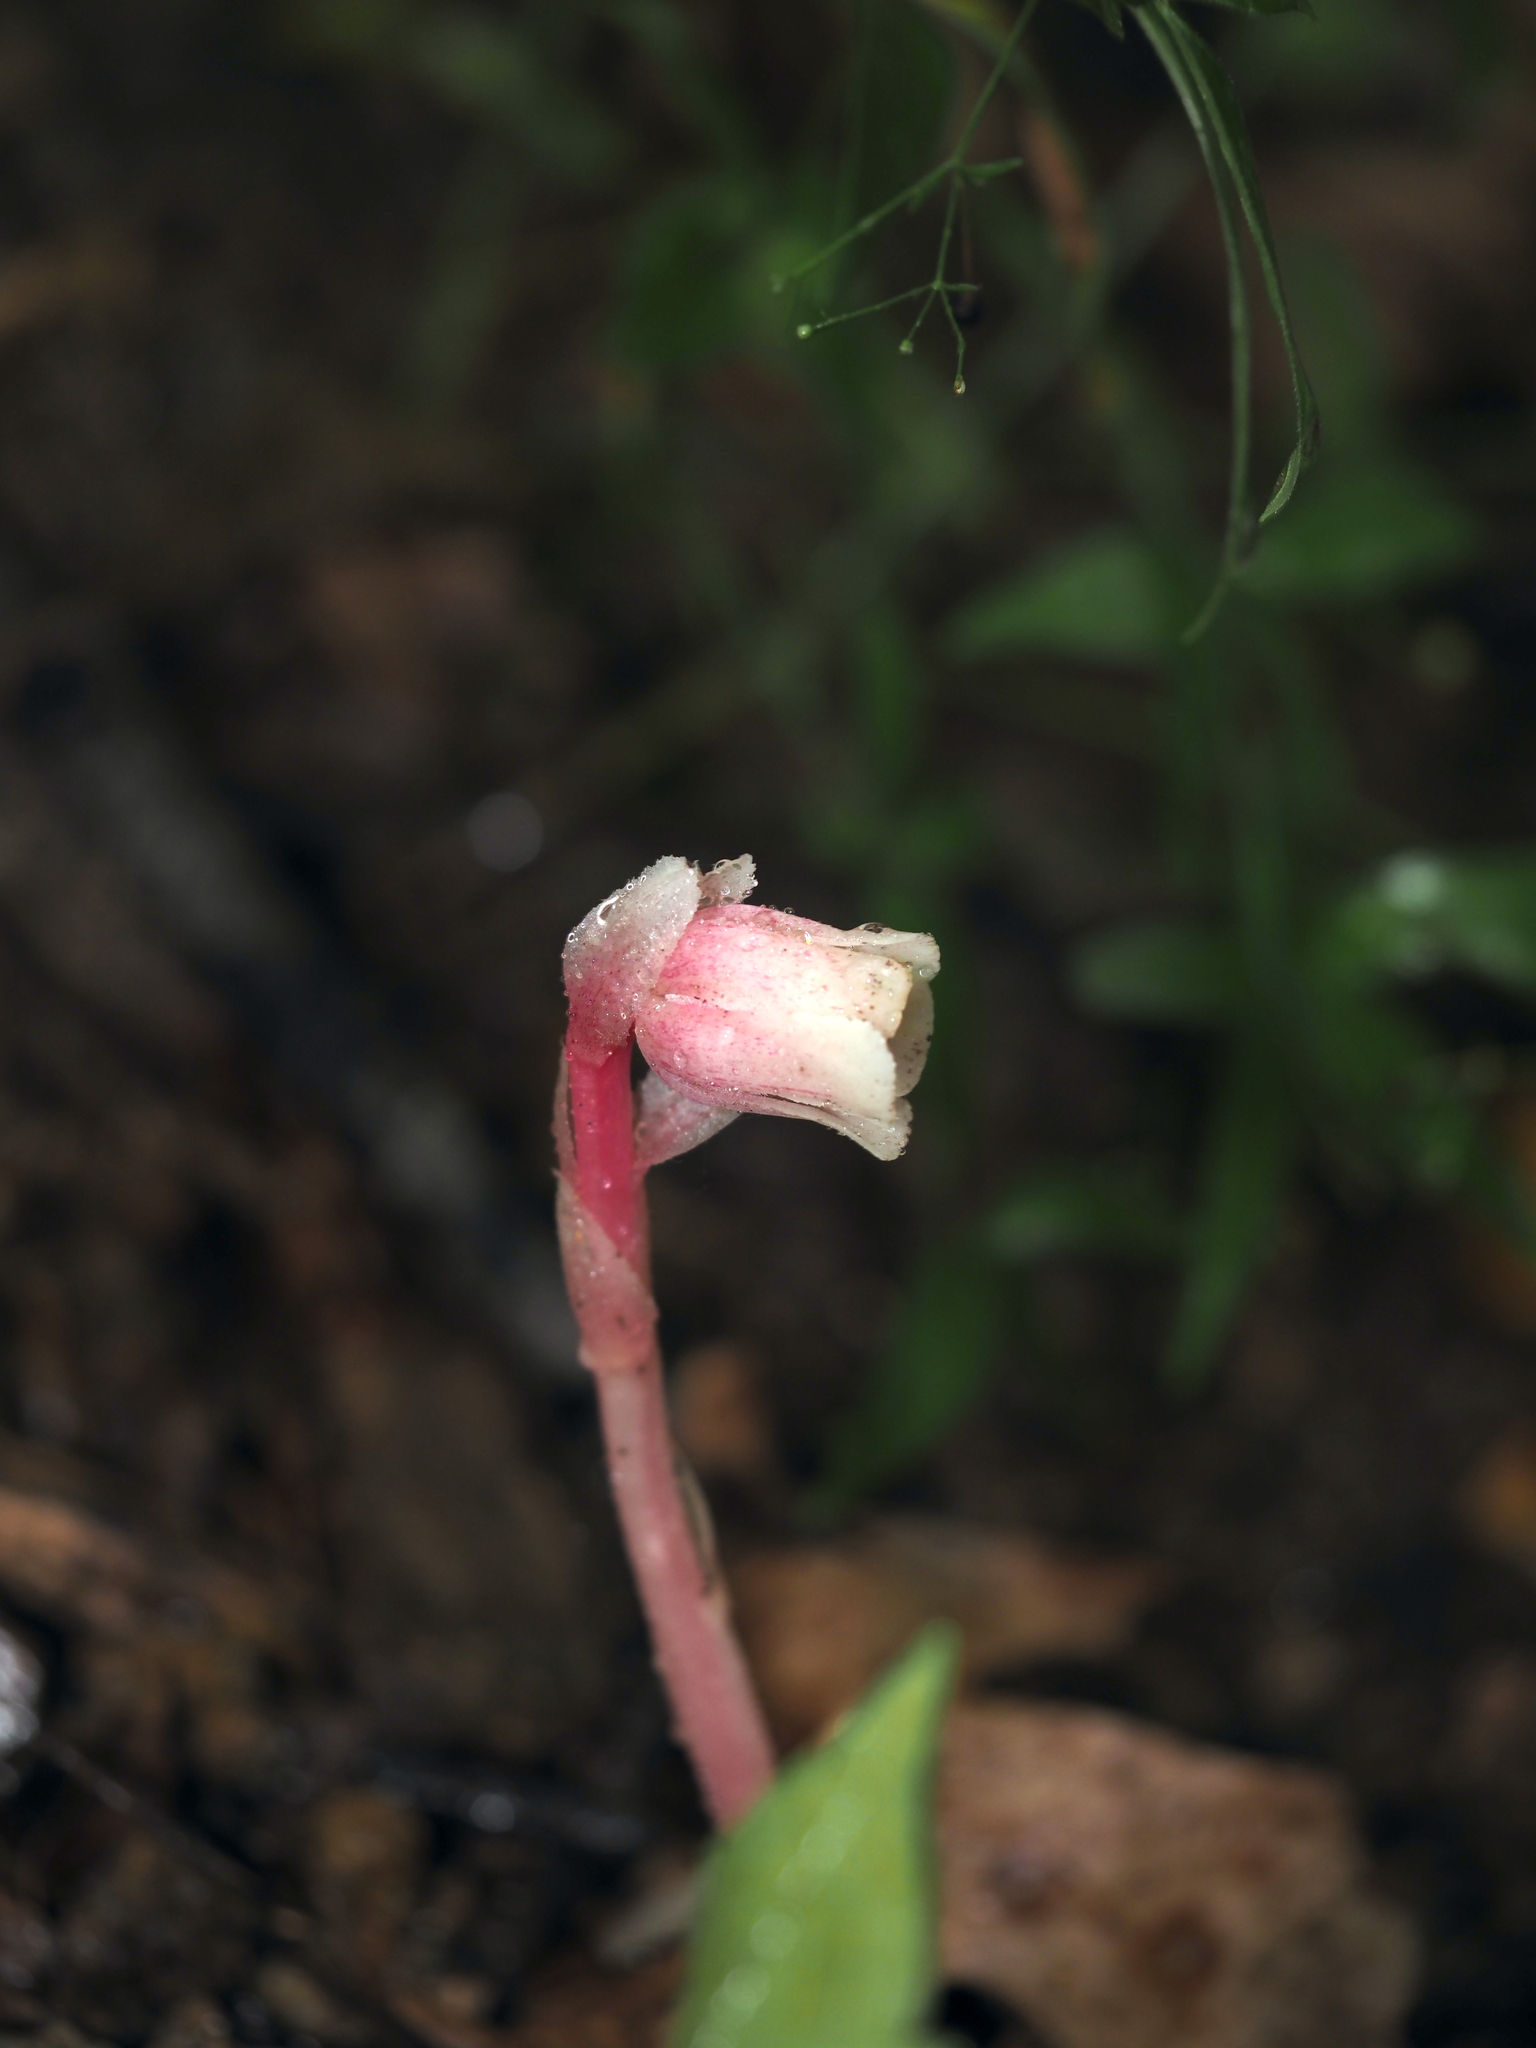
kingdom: Plantae
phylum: Tracheophyta
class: Magnoliopsida
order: Ericales
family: Ericaceae
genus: Monotropa
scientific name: Monotropa uniflora
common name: Convulsion root
